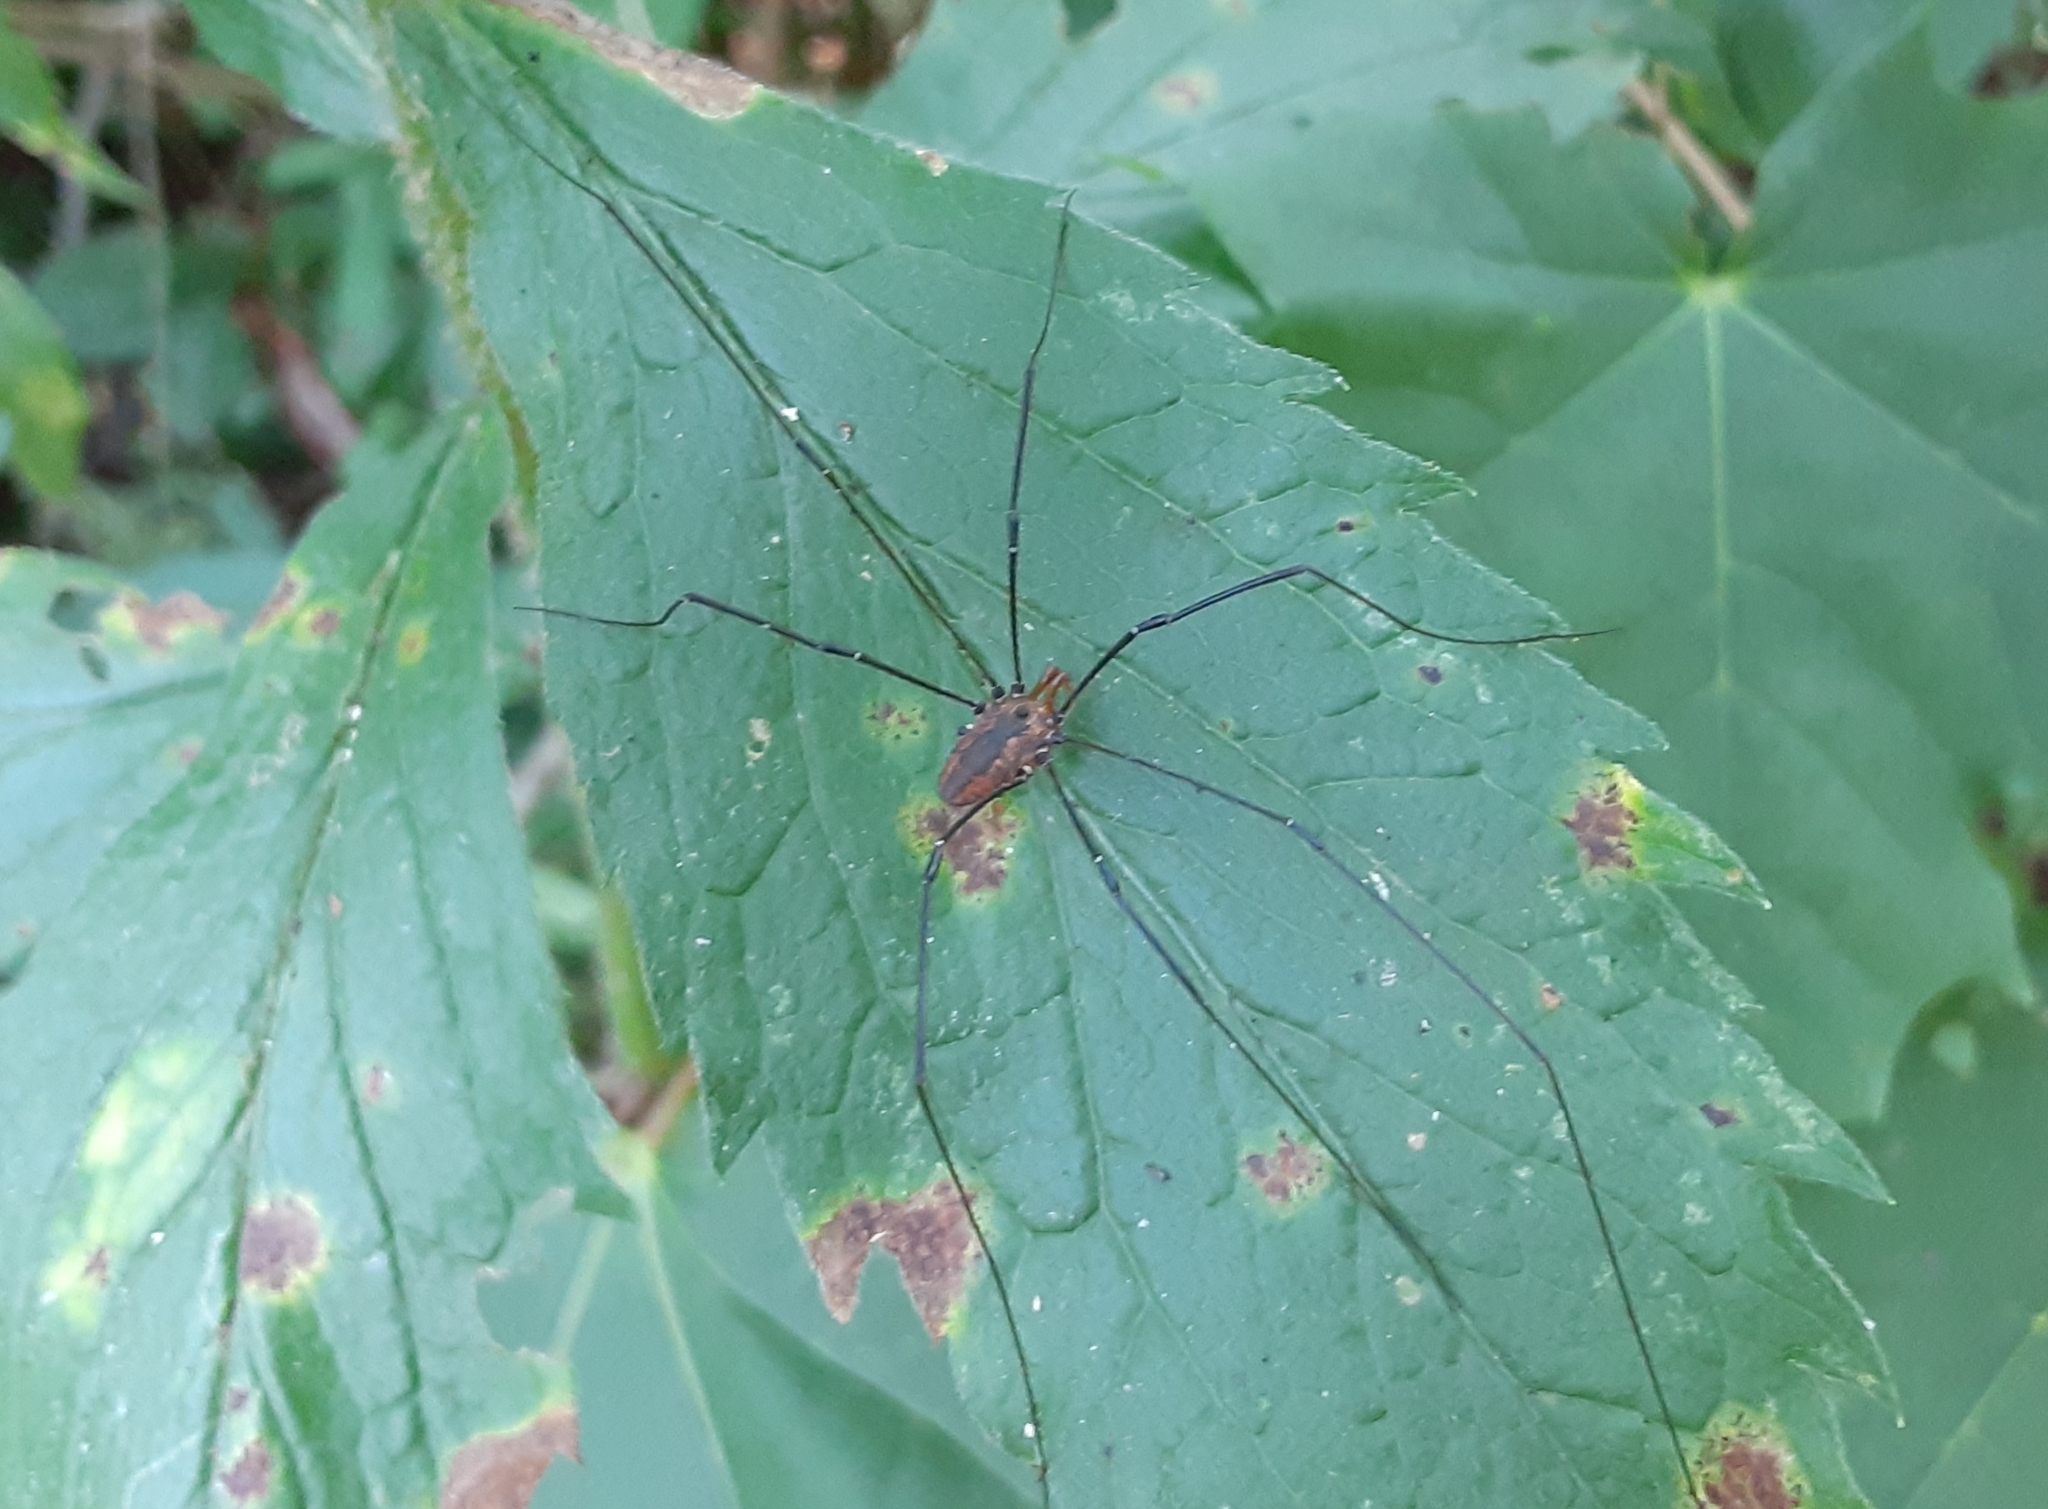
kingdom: Animalia
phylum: Arthropoda
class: Arachnida
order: Opiliones
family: Sclerosomatidae
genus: Leiobunum
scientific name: Leiobunum vittatum
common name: Eastern harvestman
